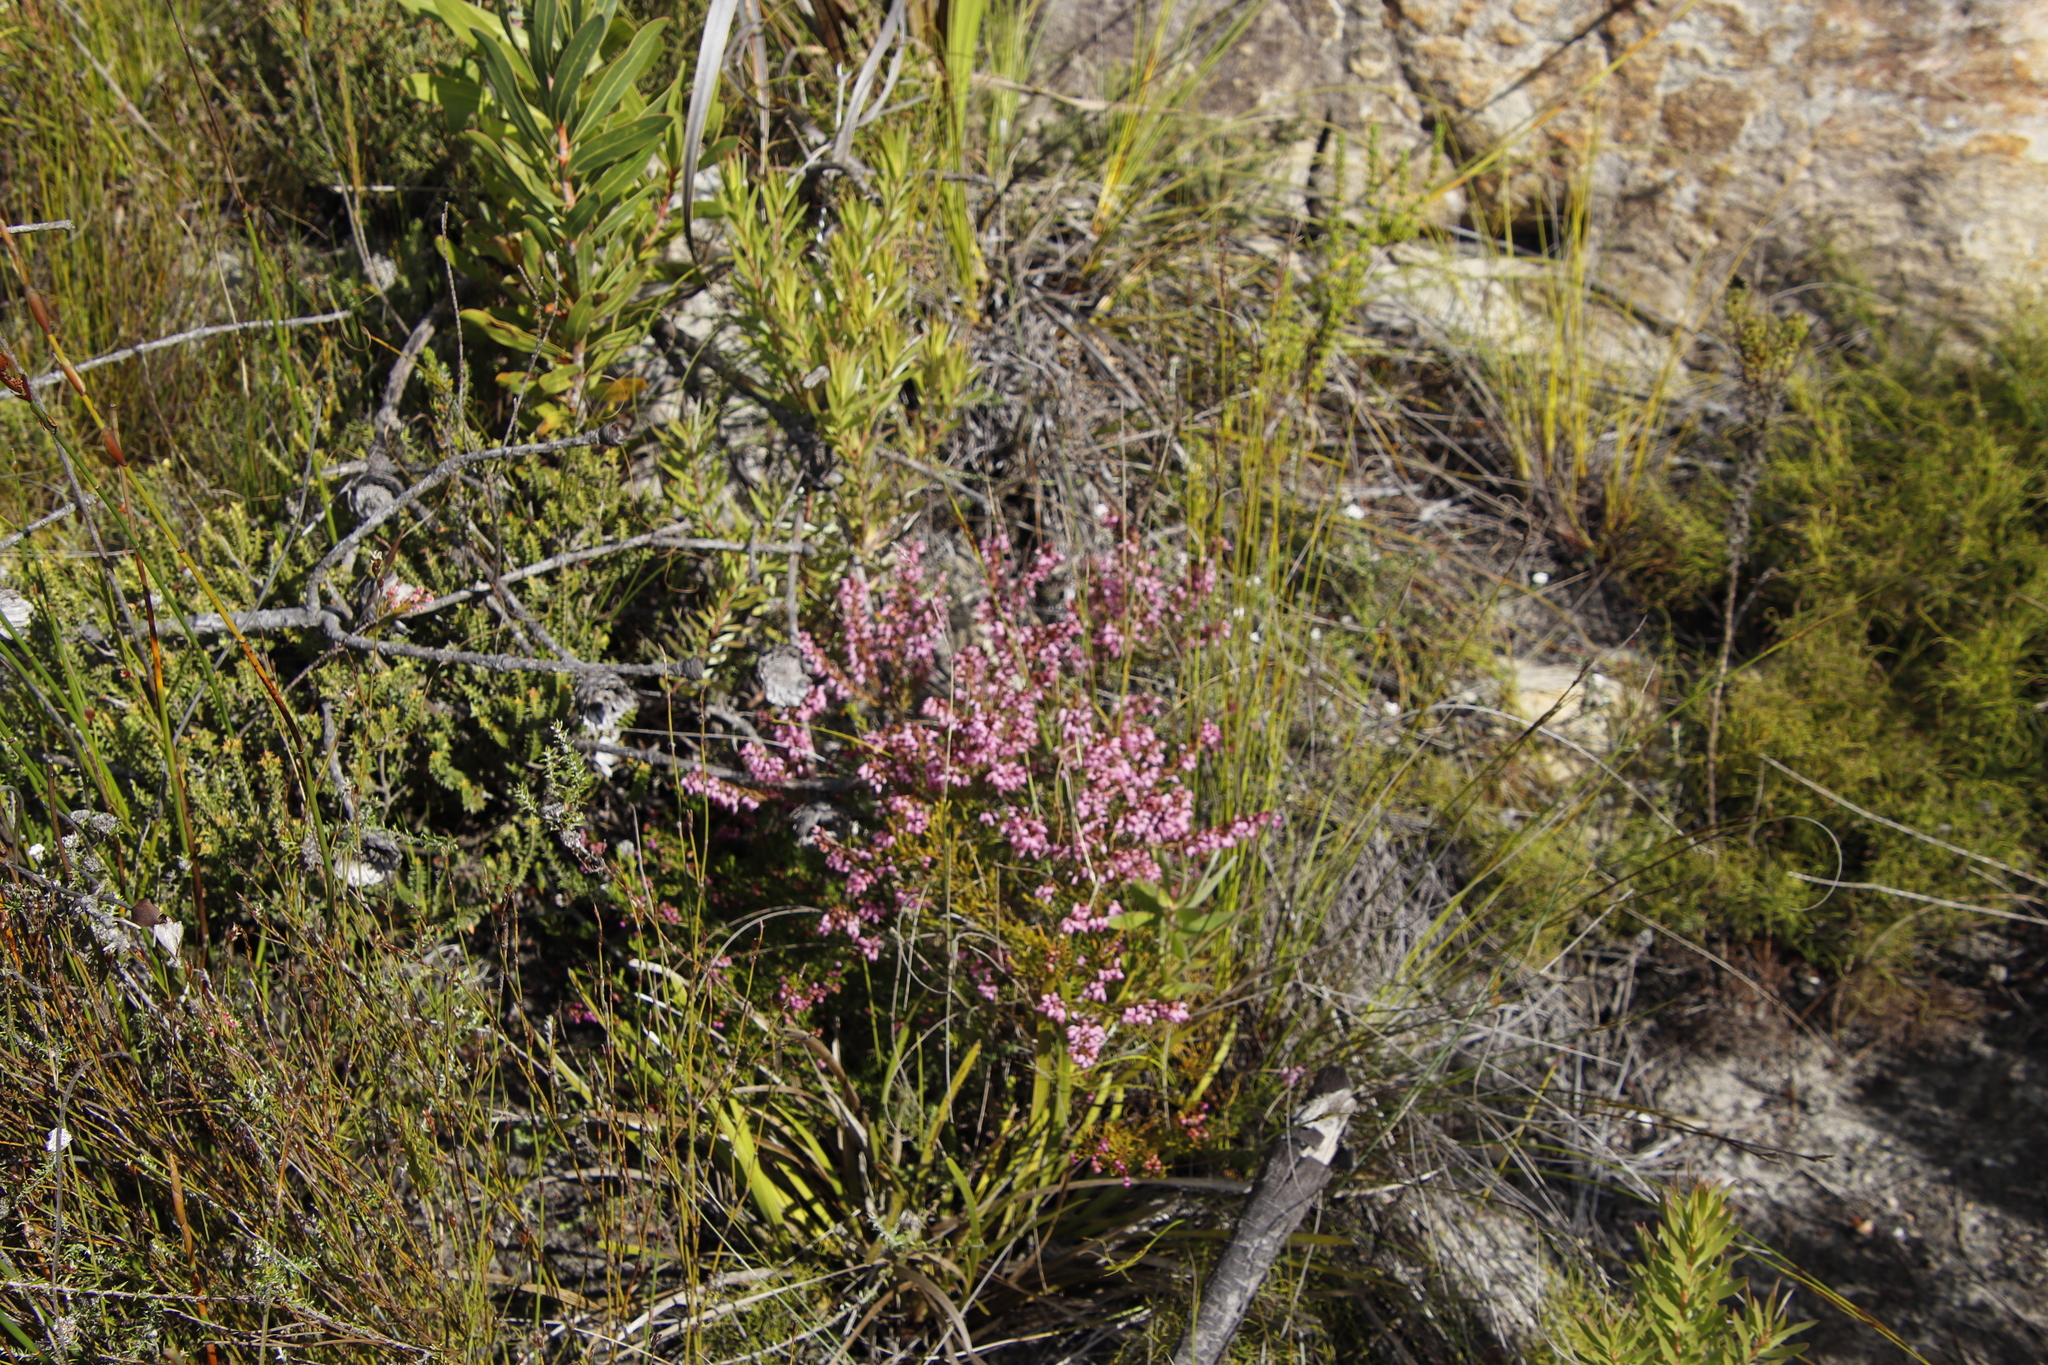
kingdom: Plantae
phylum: Tracheophyta
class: Magnoliopsida
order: Ericales
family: Ericaceae
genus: Erica
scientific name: Erica nudiflora
